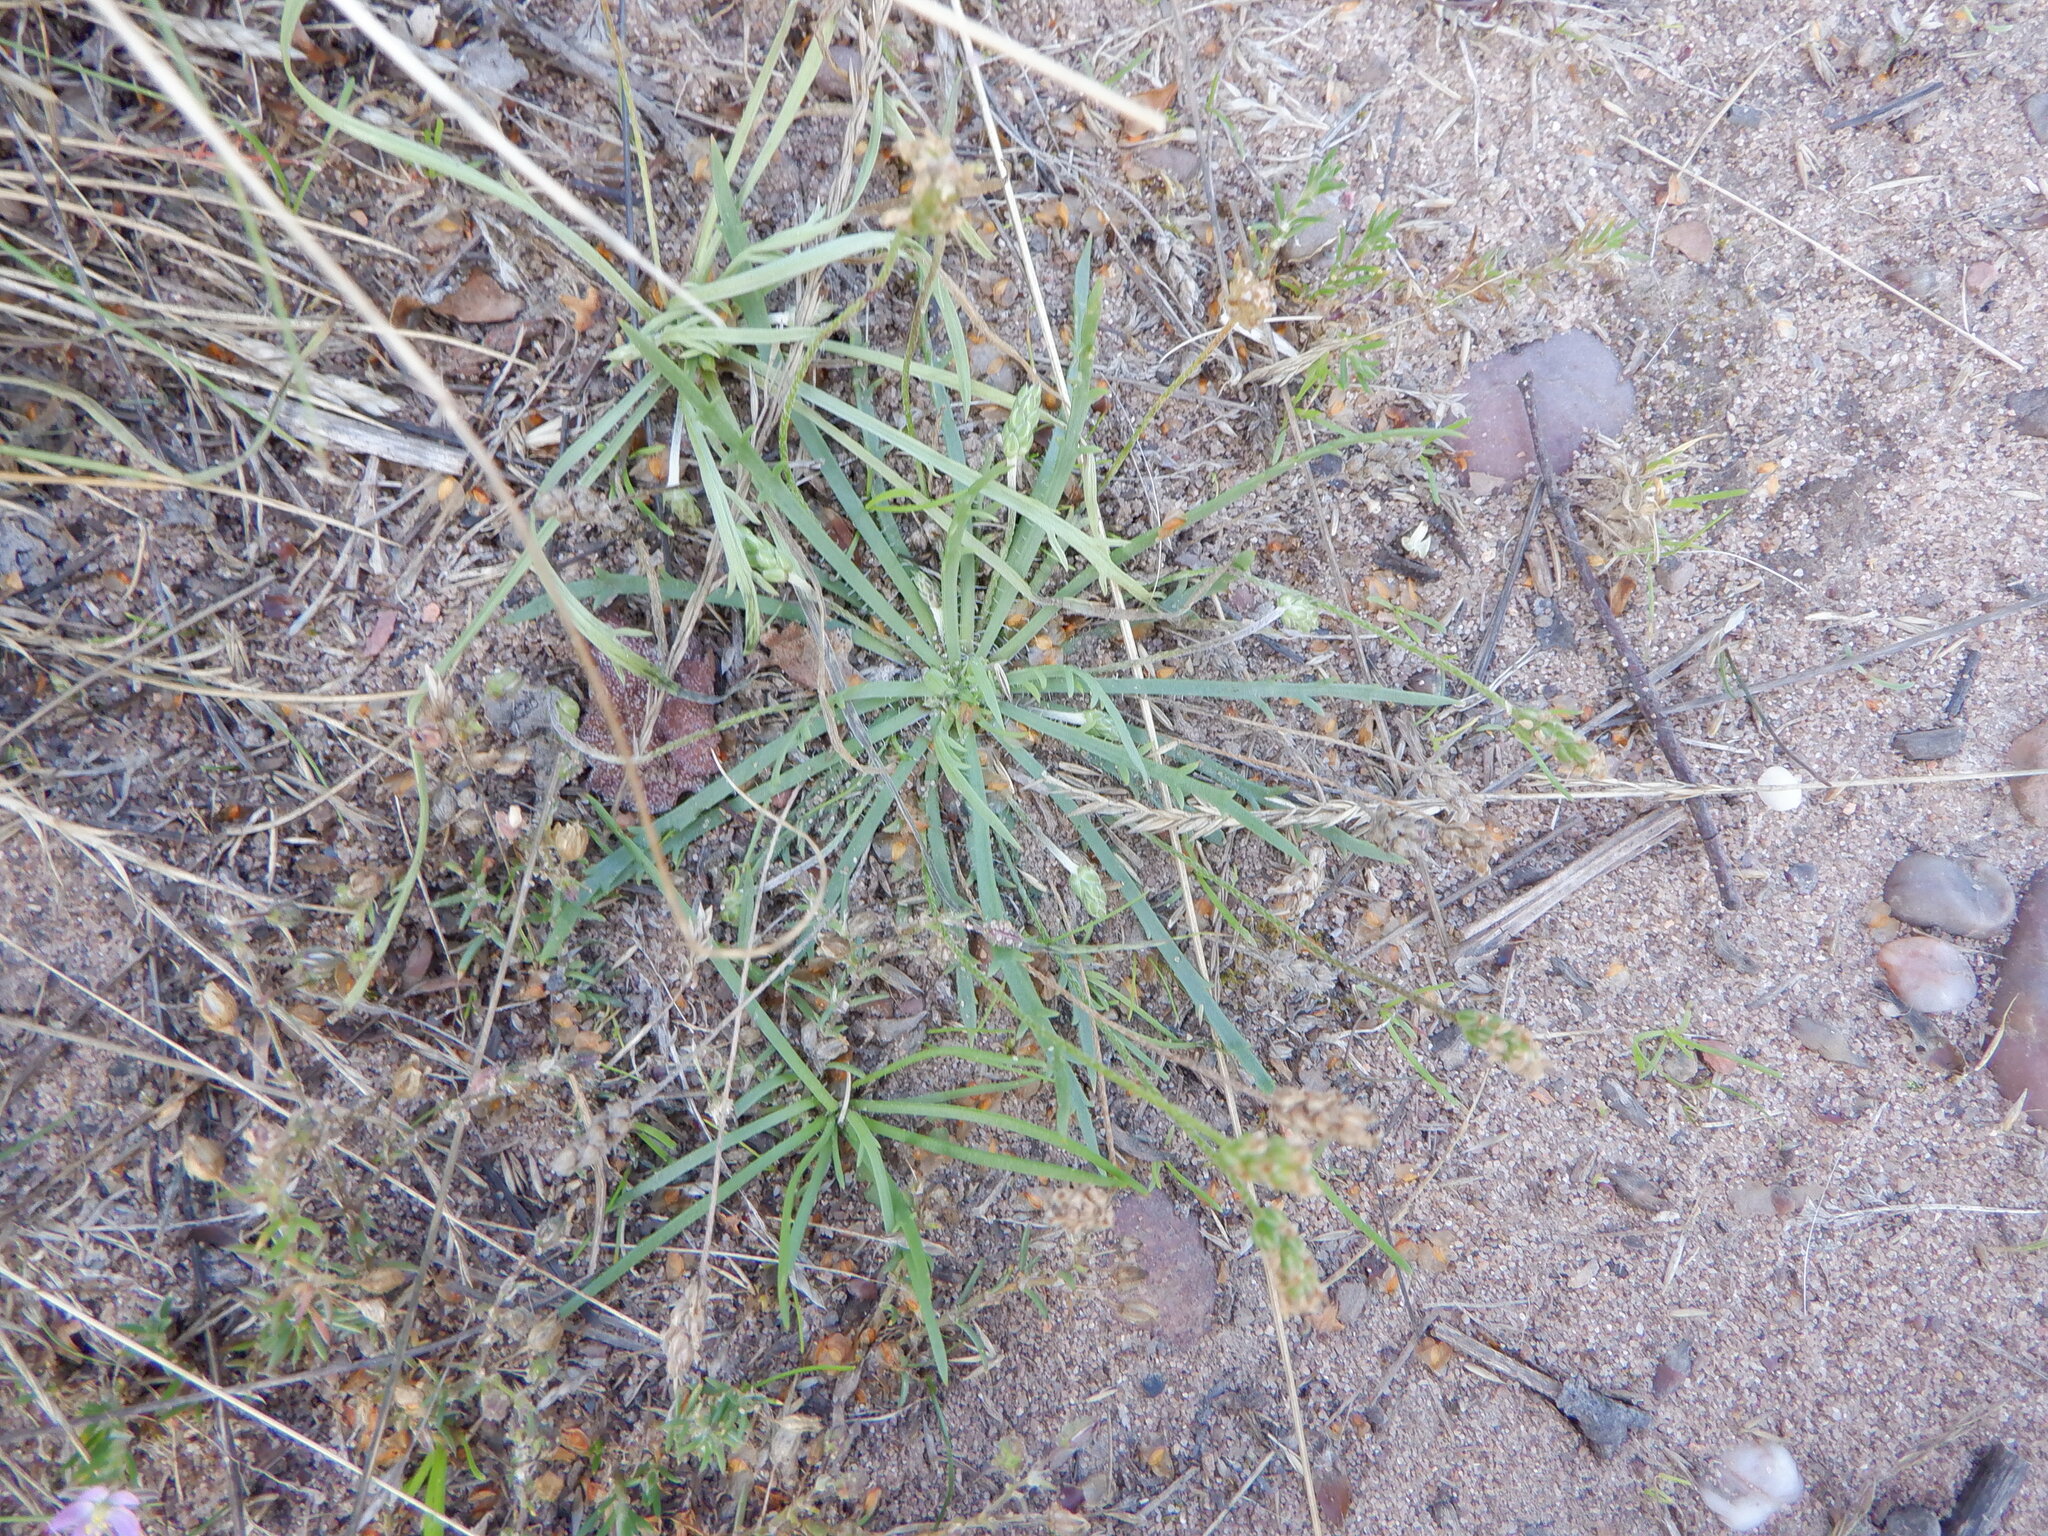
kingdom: Plantae
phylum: Tracheophyta
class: Magnoliopsida
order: Lamiales
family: Plantaginaceae
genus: Plantago
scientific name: Plantago coronopus
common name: Buck's-horn plantain
